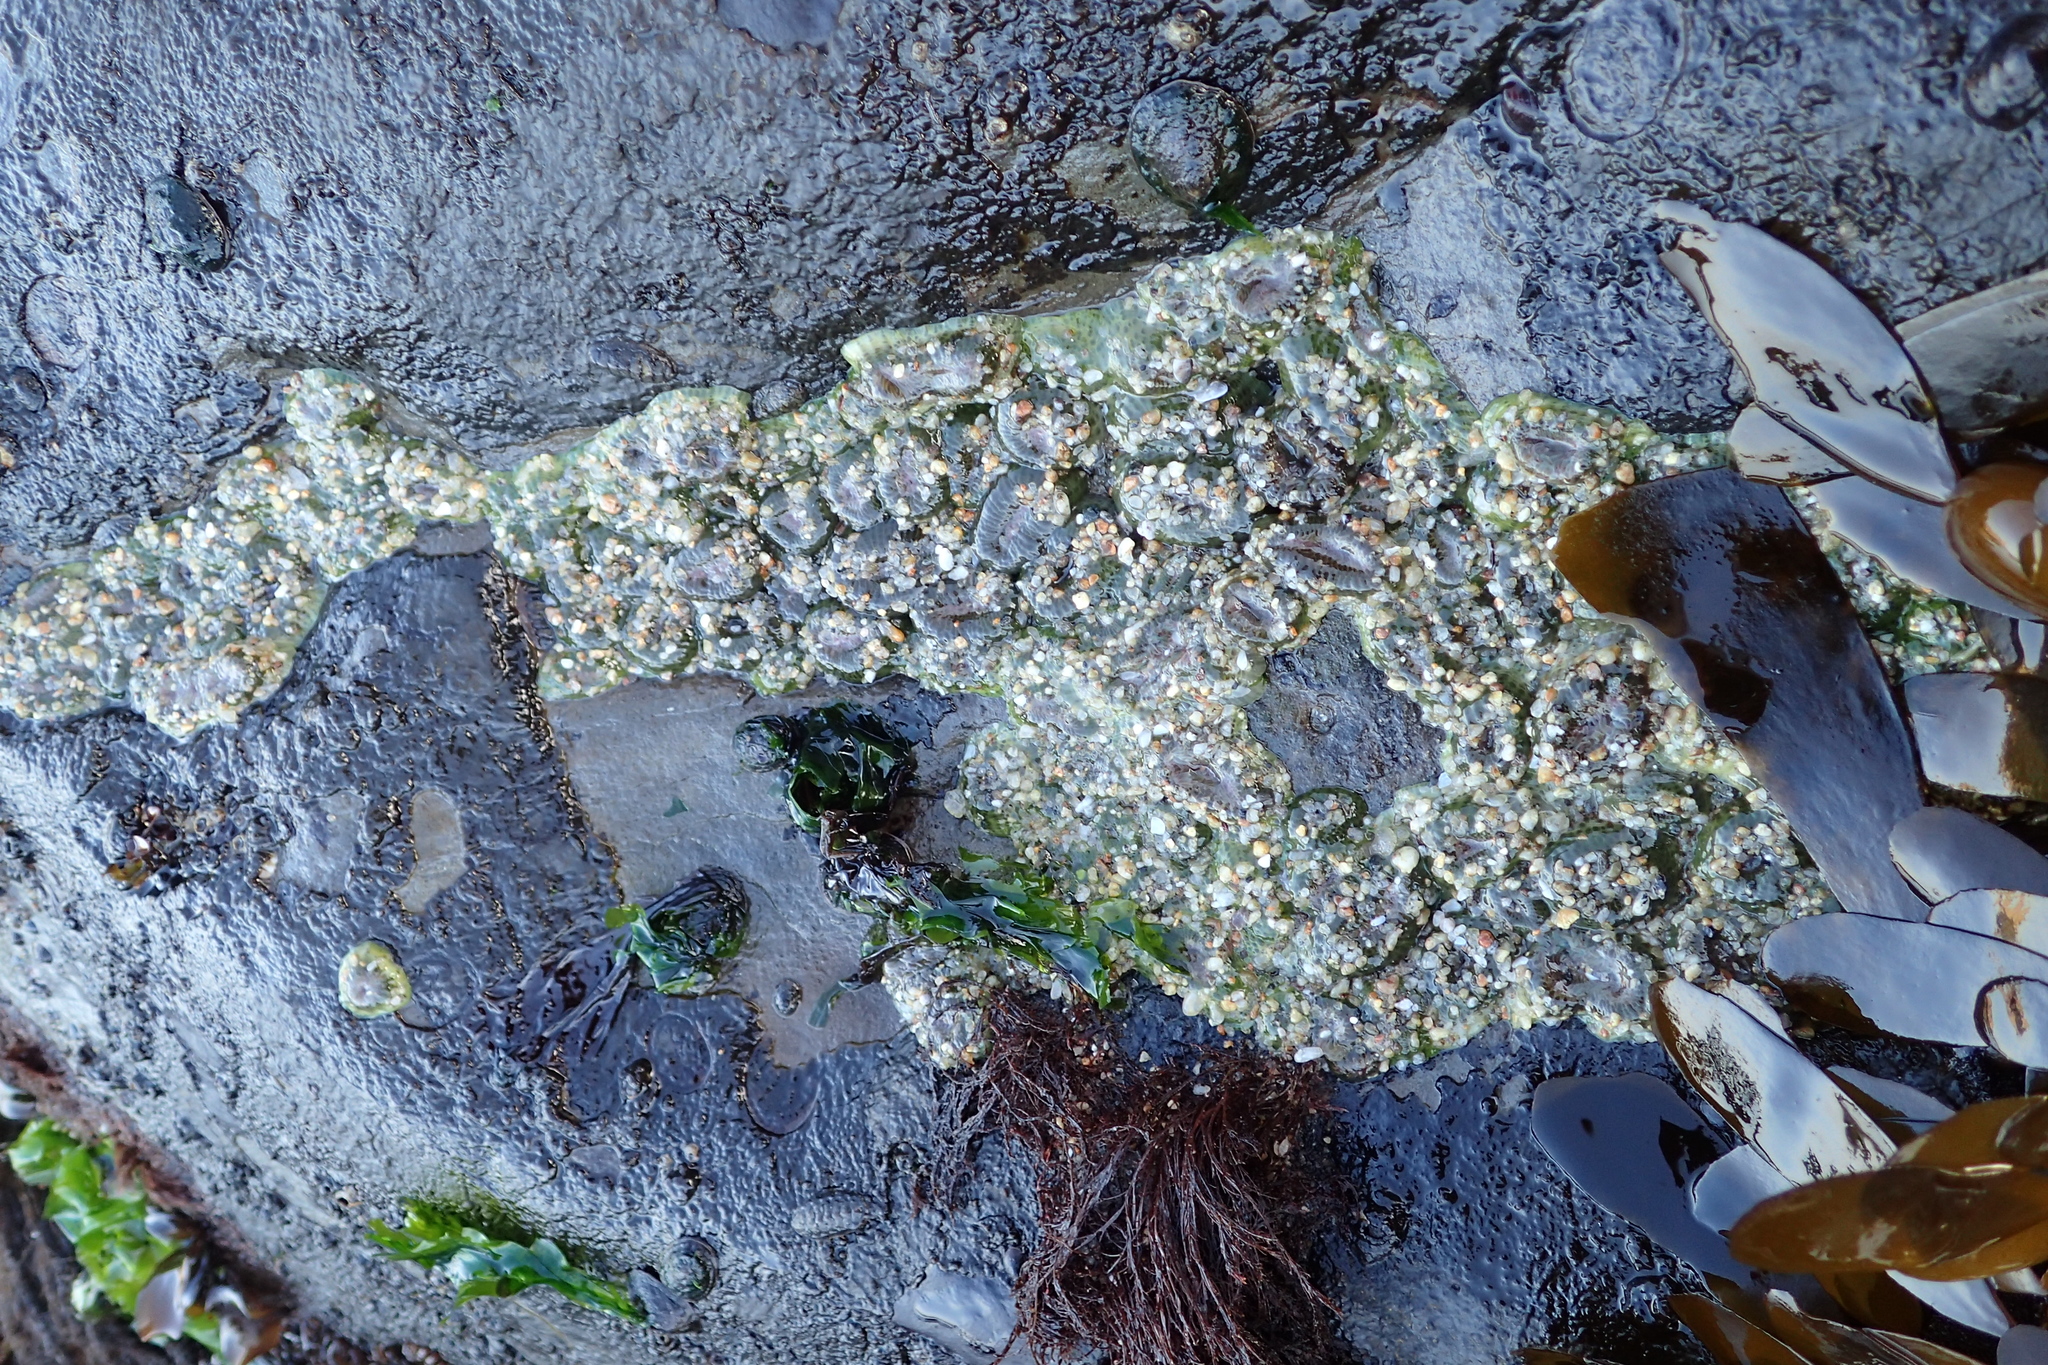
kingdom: Animalia
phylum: Cnidaria
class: Anthozoa
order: Actiniaria
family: Actiniidae
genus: Anthopleura
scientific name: Anthopleura elegantissima
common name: Clonal anemone
